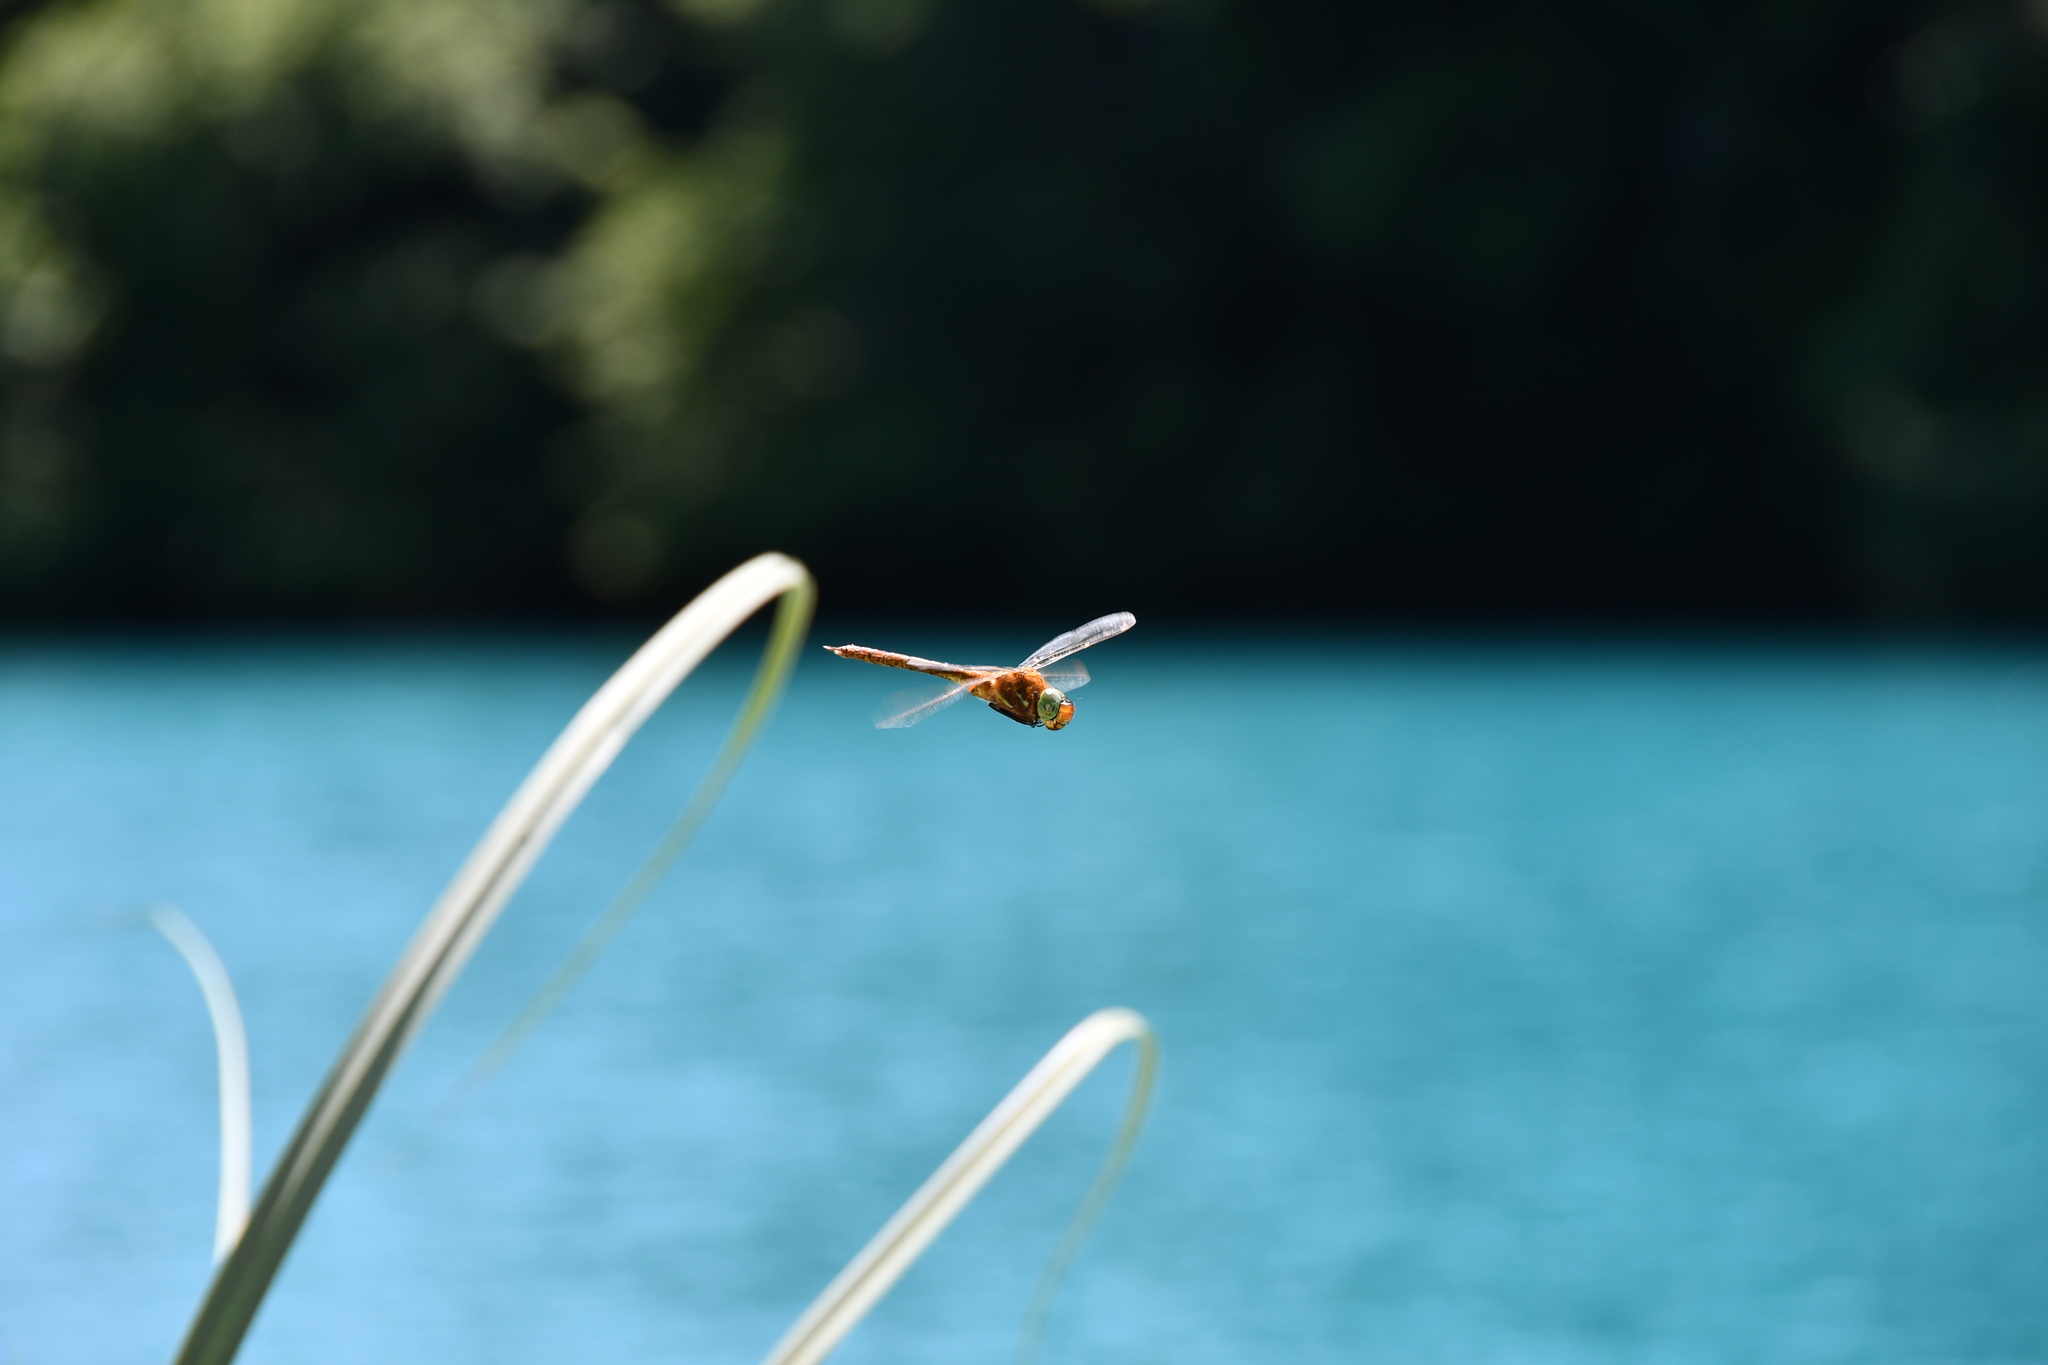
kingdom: Animalia
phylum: Arthropoda
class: Insecta
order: Odonata
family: Aeshnidae
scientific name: Aeshnidae
